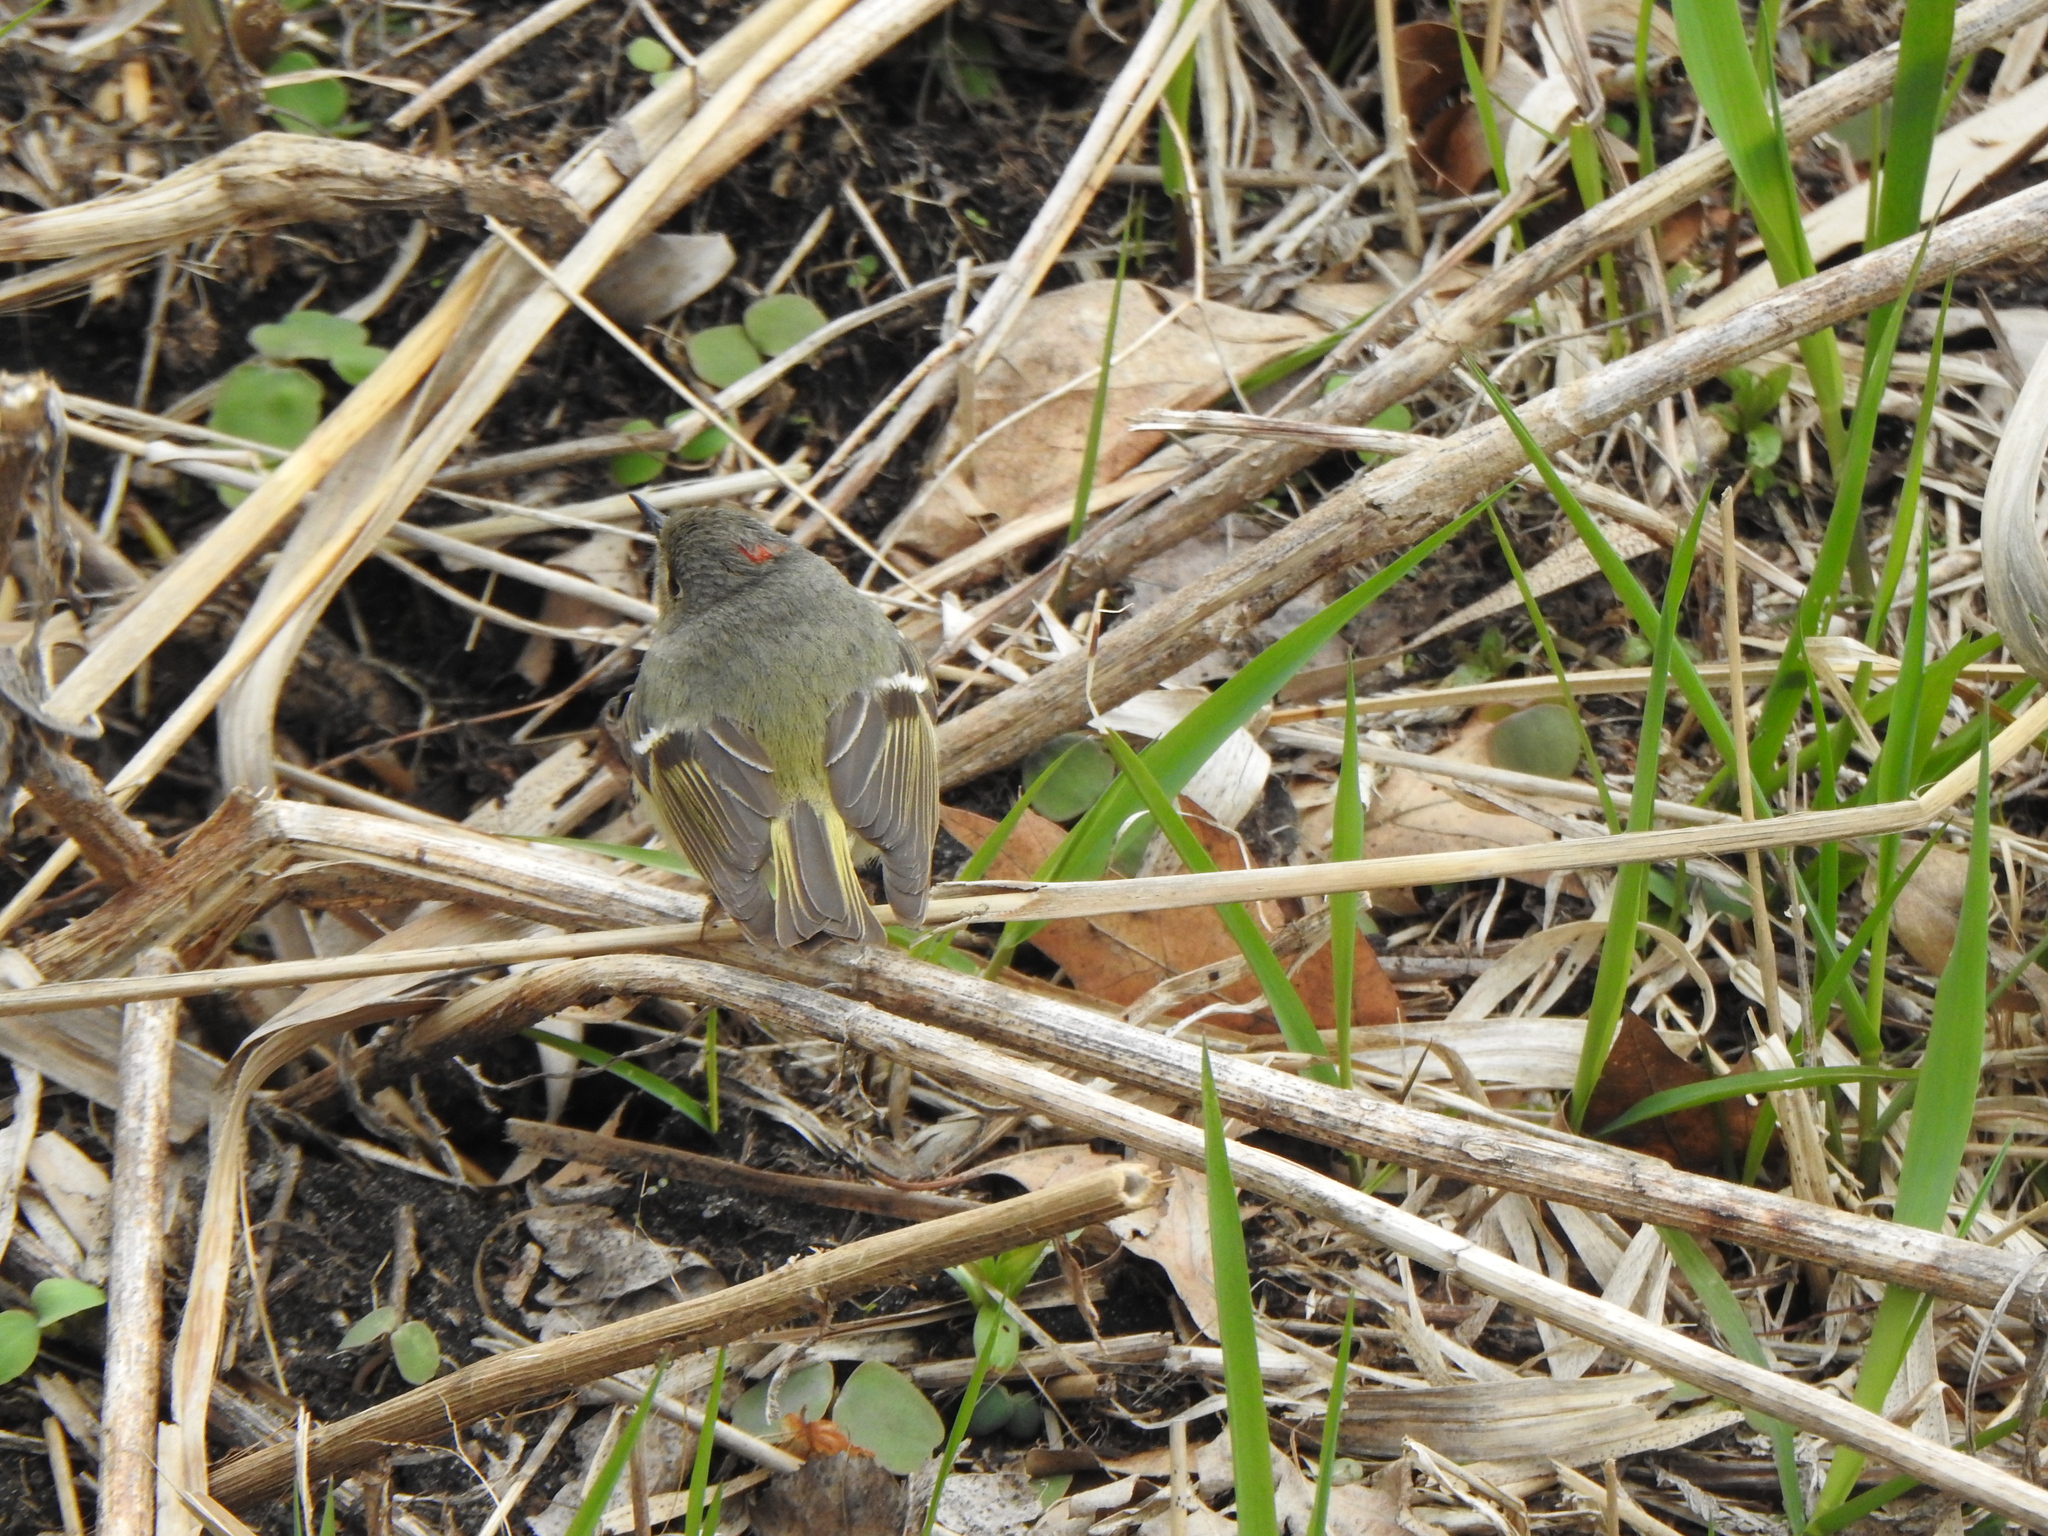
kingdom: Animalia
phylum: Chordata
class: Aves
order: Passeriformes
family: Regulidae
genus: Regulus
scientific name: Regulus calendula
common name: Ruby-crowned kinglet
